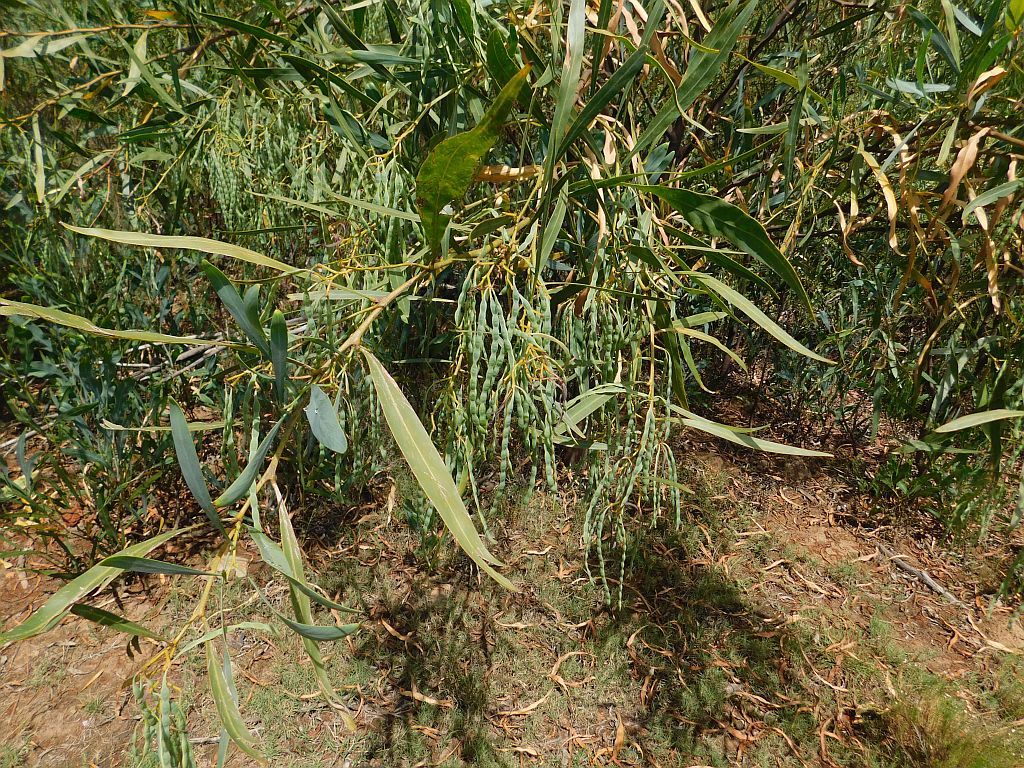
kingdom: Plantae
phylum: Tracheophyta
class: Magnoliopsida
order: Fabales
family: Fabaceae
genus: Acacia
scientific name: Acacia saligna
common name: Orange wattle
